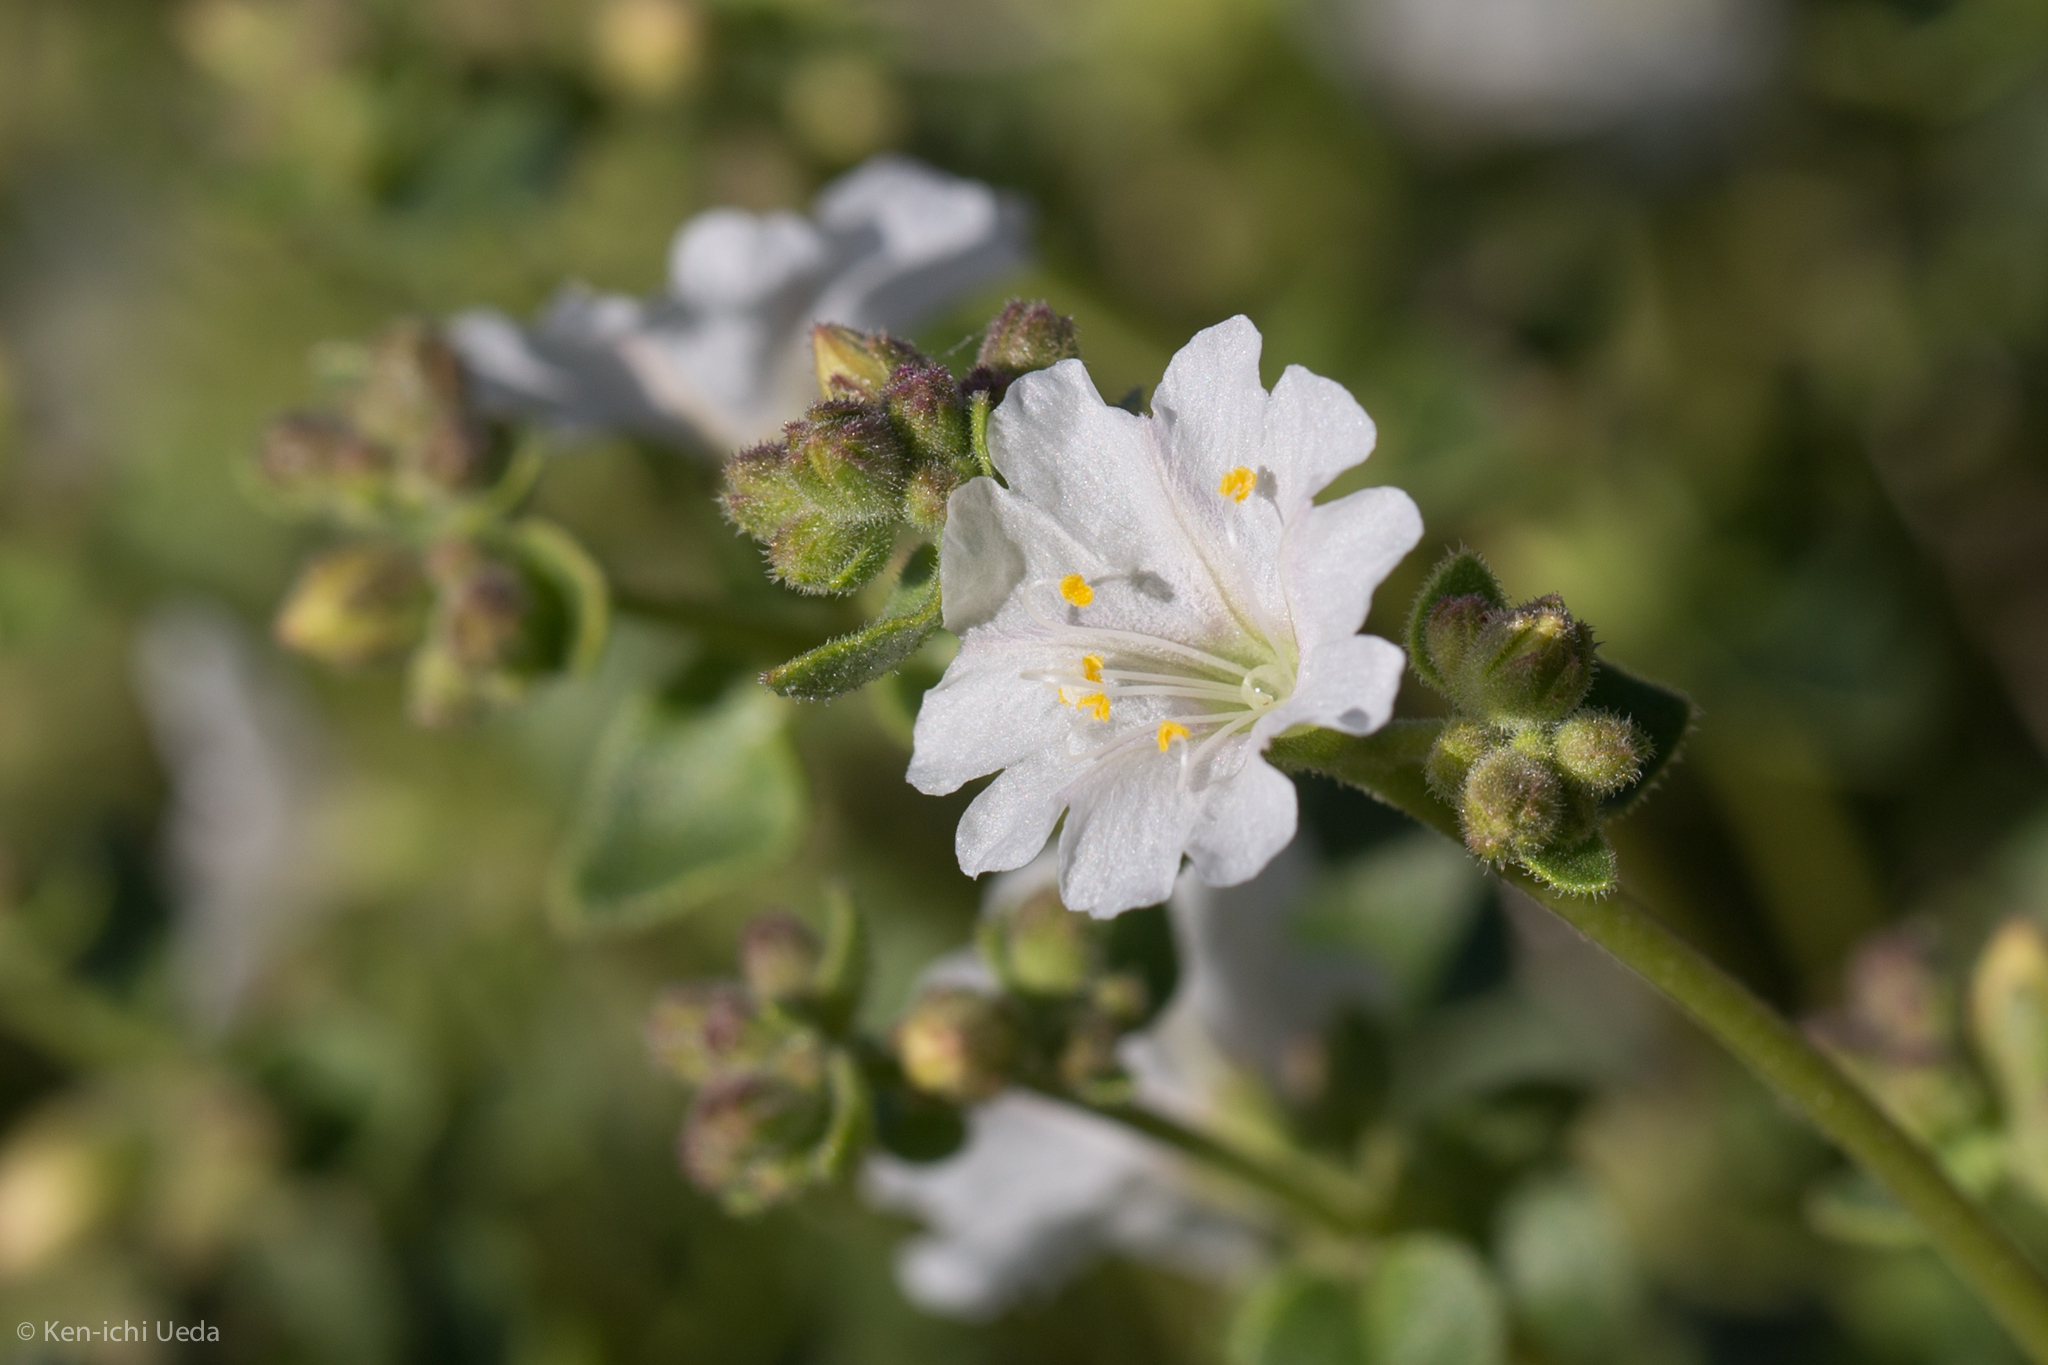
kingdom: Plantae
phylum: Tracheophyta
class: Magnoliopsida
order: Caryophyllales
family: Nyctaginaceae
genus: Mirabilis
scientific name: Mirabilis laevis
